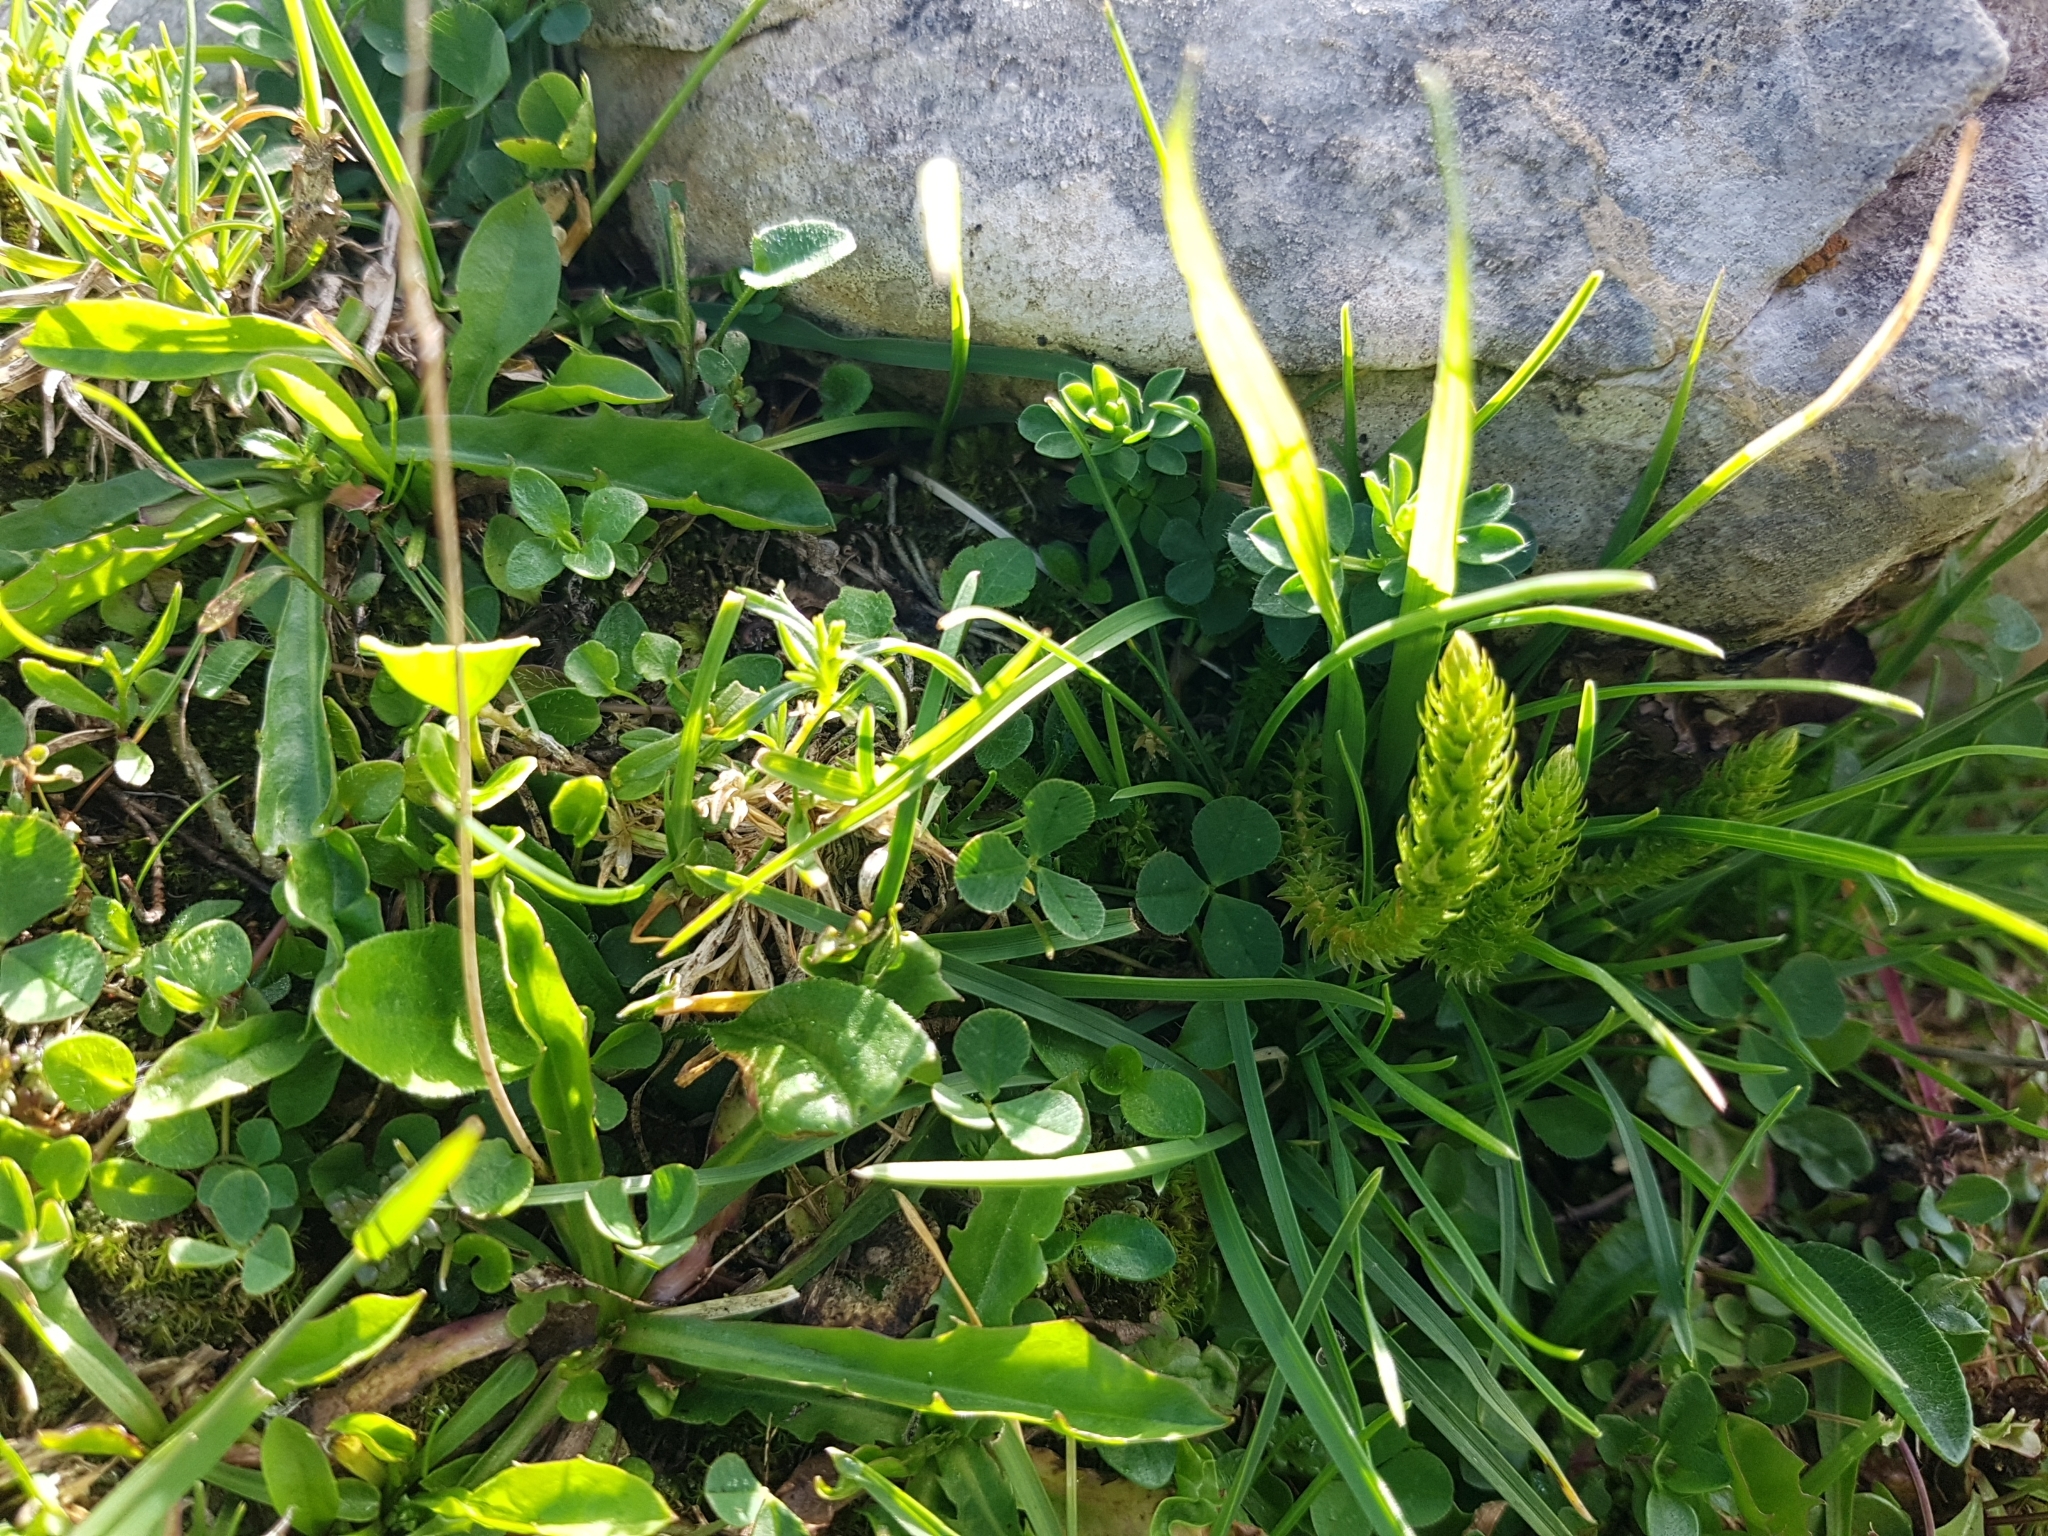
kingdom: Plantae
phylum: Tracheophyta
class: Lycopodiopsida
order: Selaginellales
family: Selaginellaceae
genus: Selaginella
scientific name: Selaginella selaginoides
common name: Prickly mountain-moss
